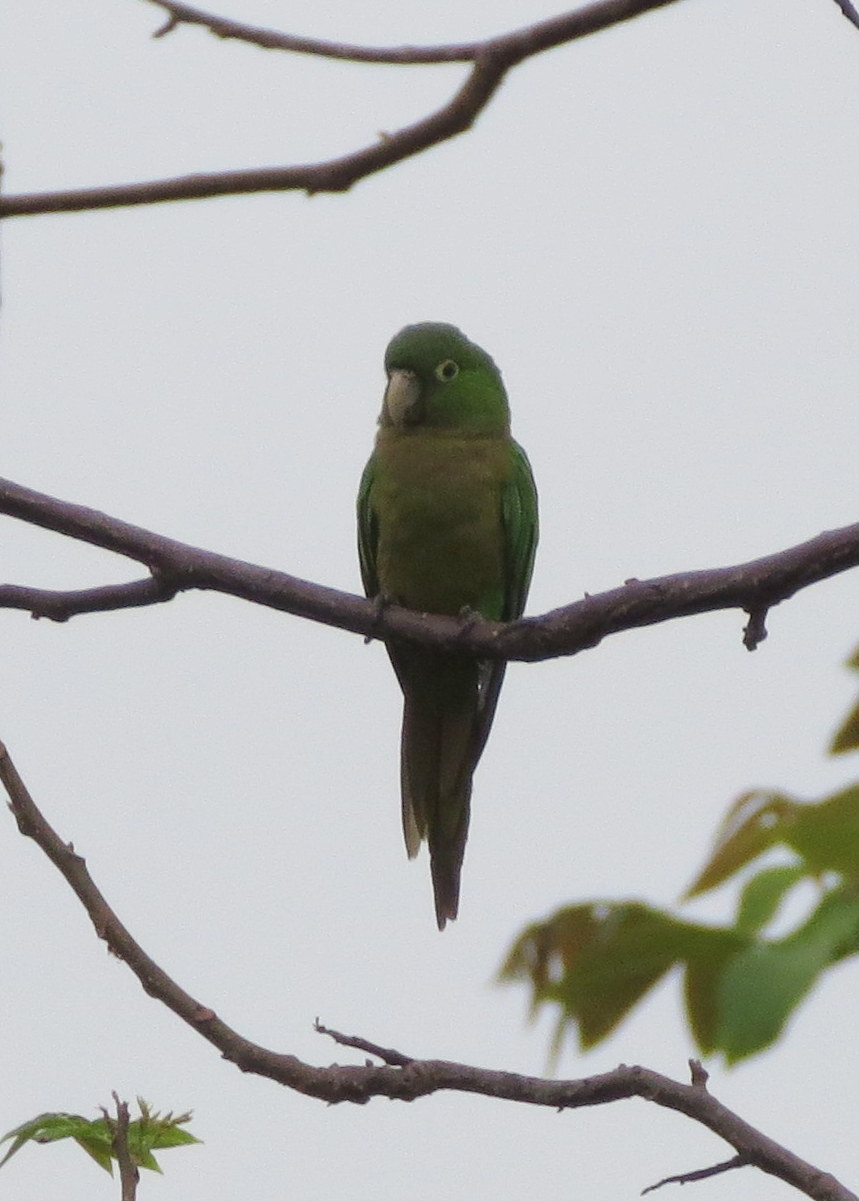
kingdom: Animalia
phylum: Chordata
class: Aves
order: Psittaciformes
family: Psittacidae
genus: Aratinga
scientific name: Aratinga nana
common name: Olive-throated parakeet
